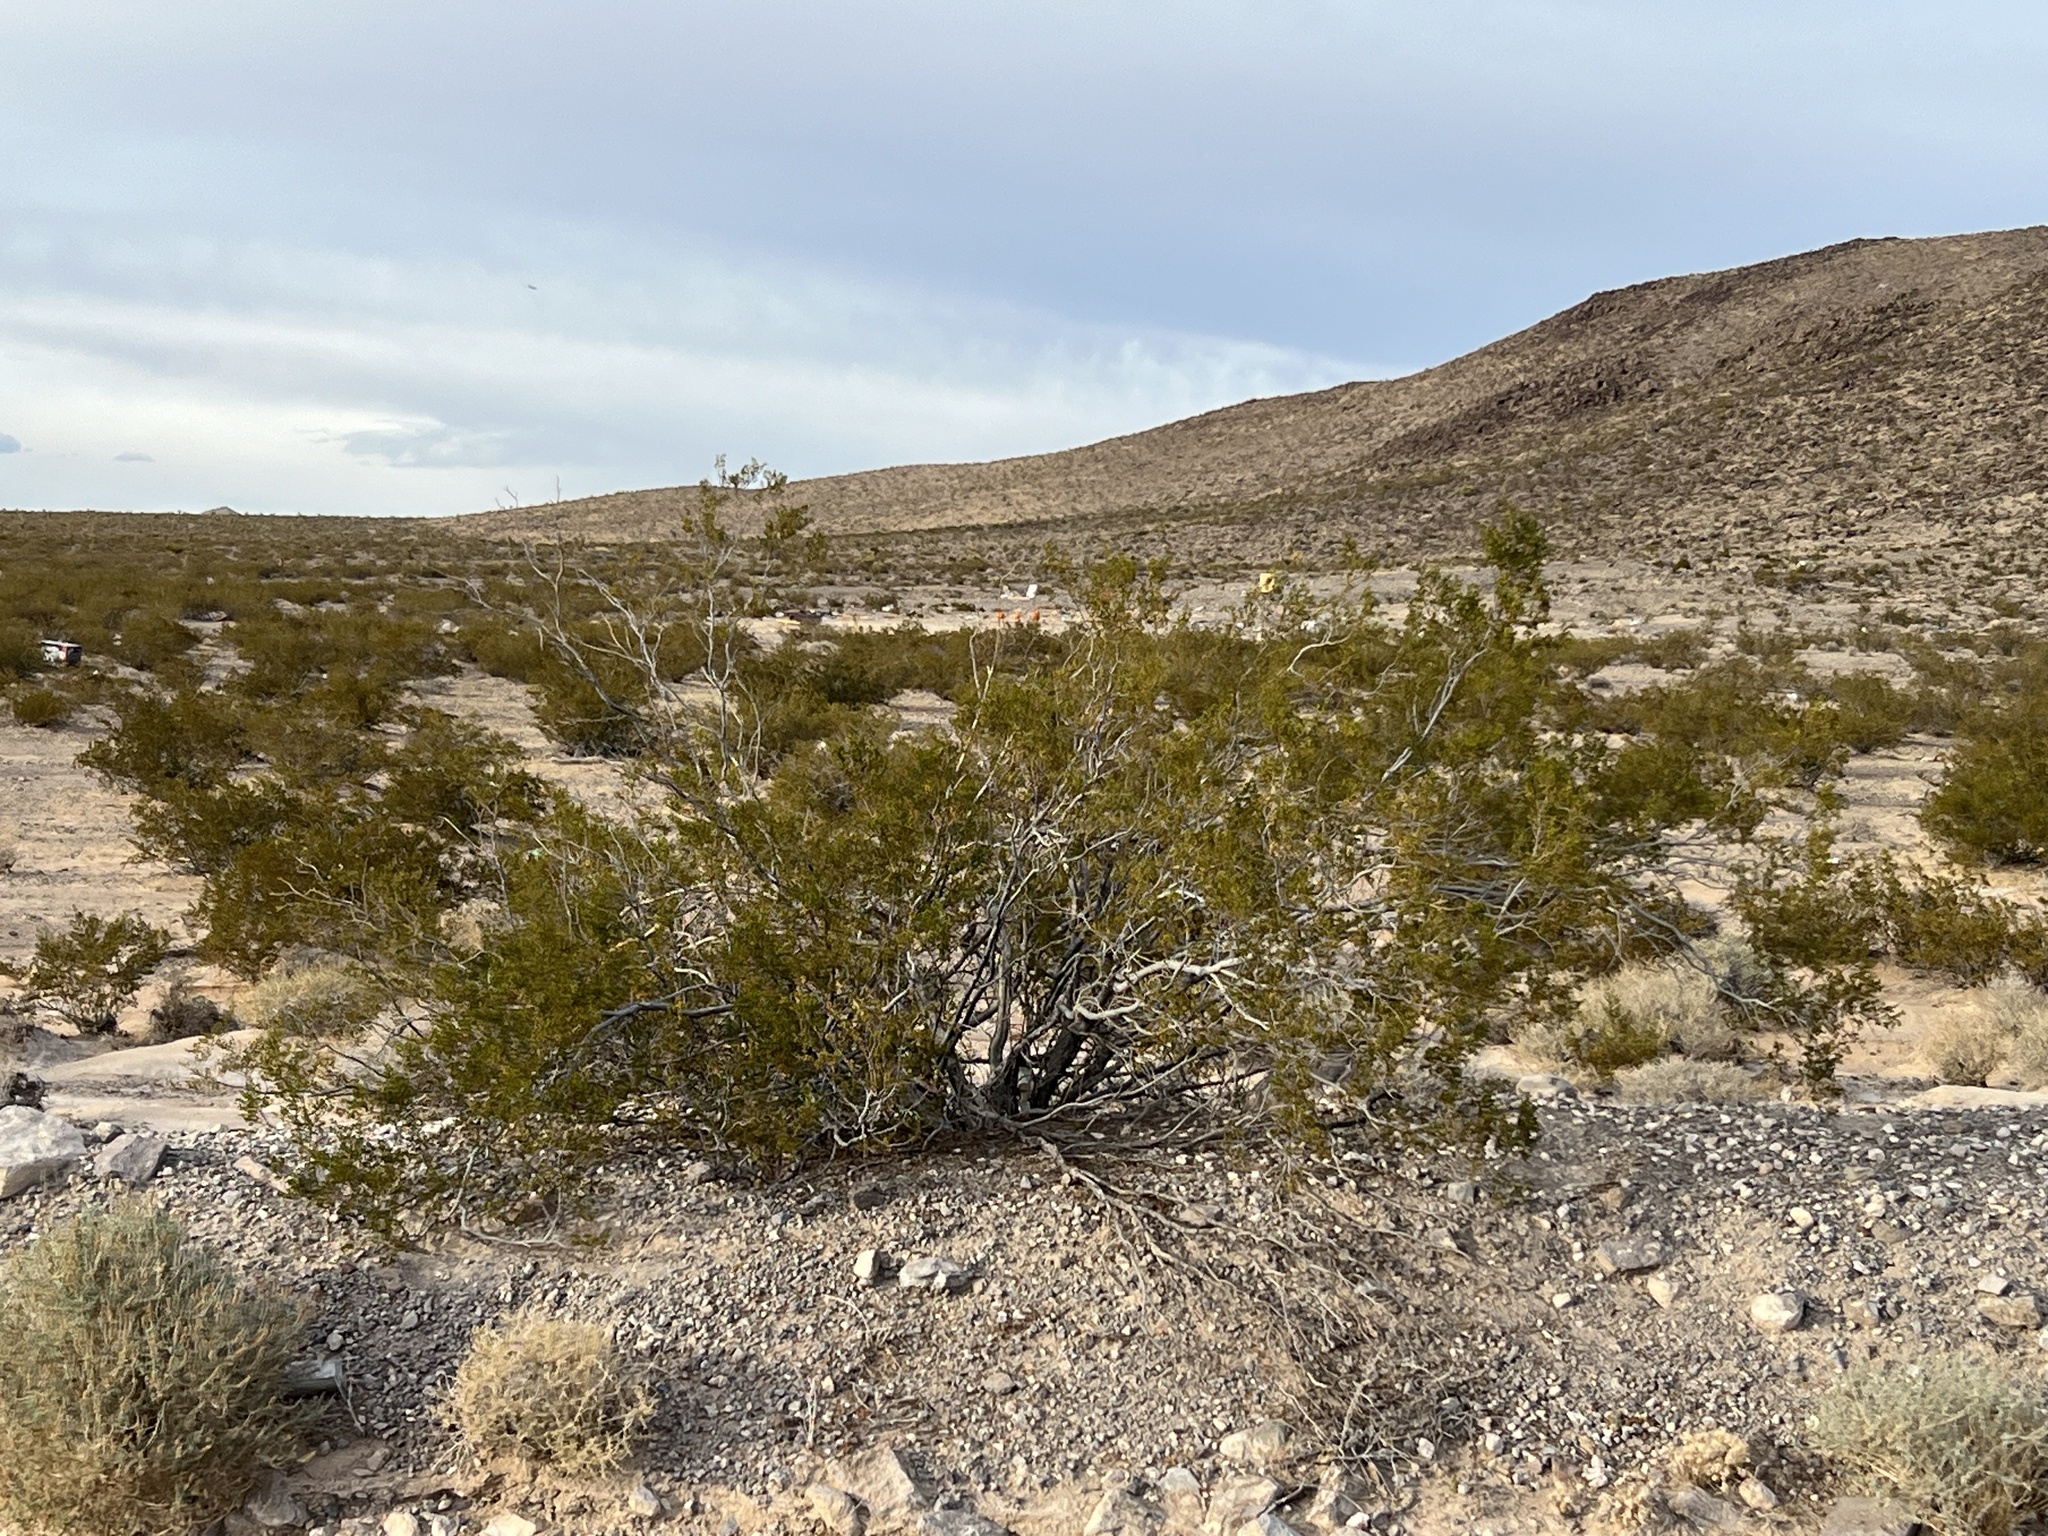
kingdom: Plantae
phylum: Tracheophyta
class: Magnoliopsida
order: Zygophyllales
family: Zygophyllaceae
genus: Larrea
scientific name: Larrea tridentata
